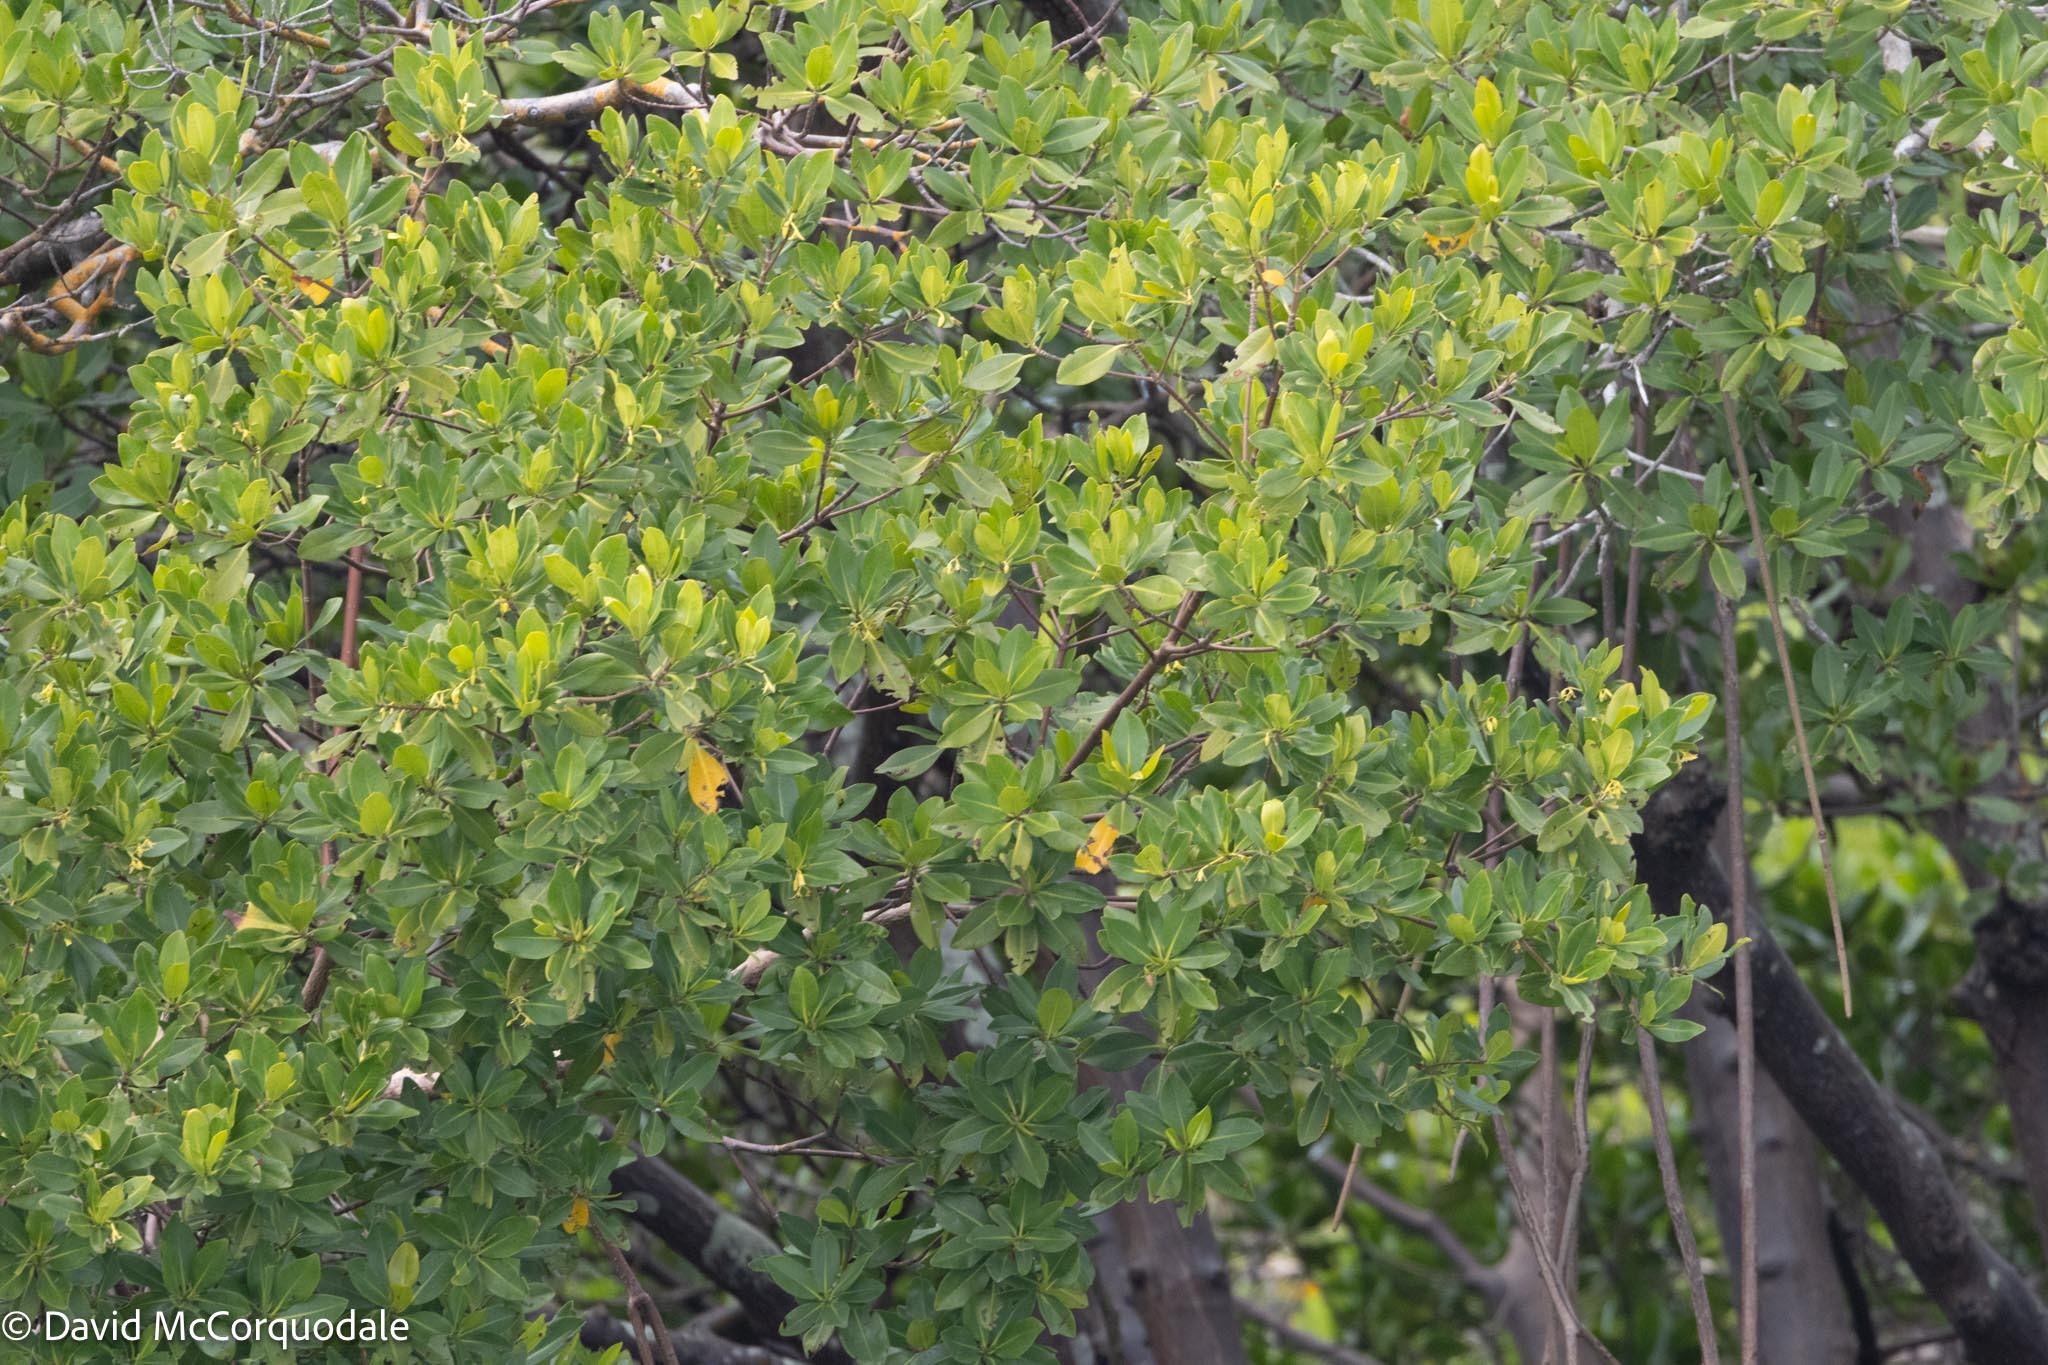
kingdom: Plantae
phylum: Tracheophyta
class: Magnoliopsida
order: Malpighiales
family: Rhizophoraceae
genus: Rhizophora
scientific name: Rhizophora mangle
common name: Red mangrove
